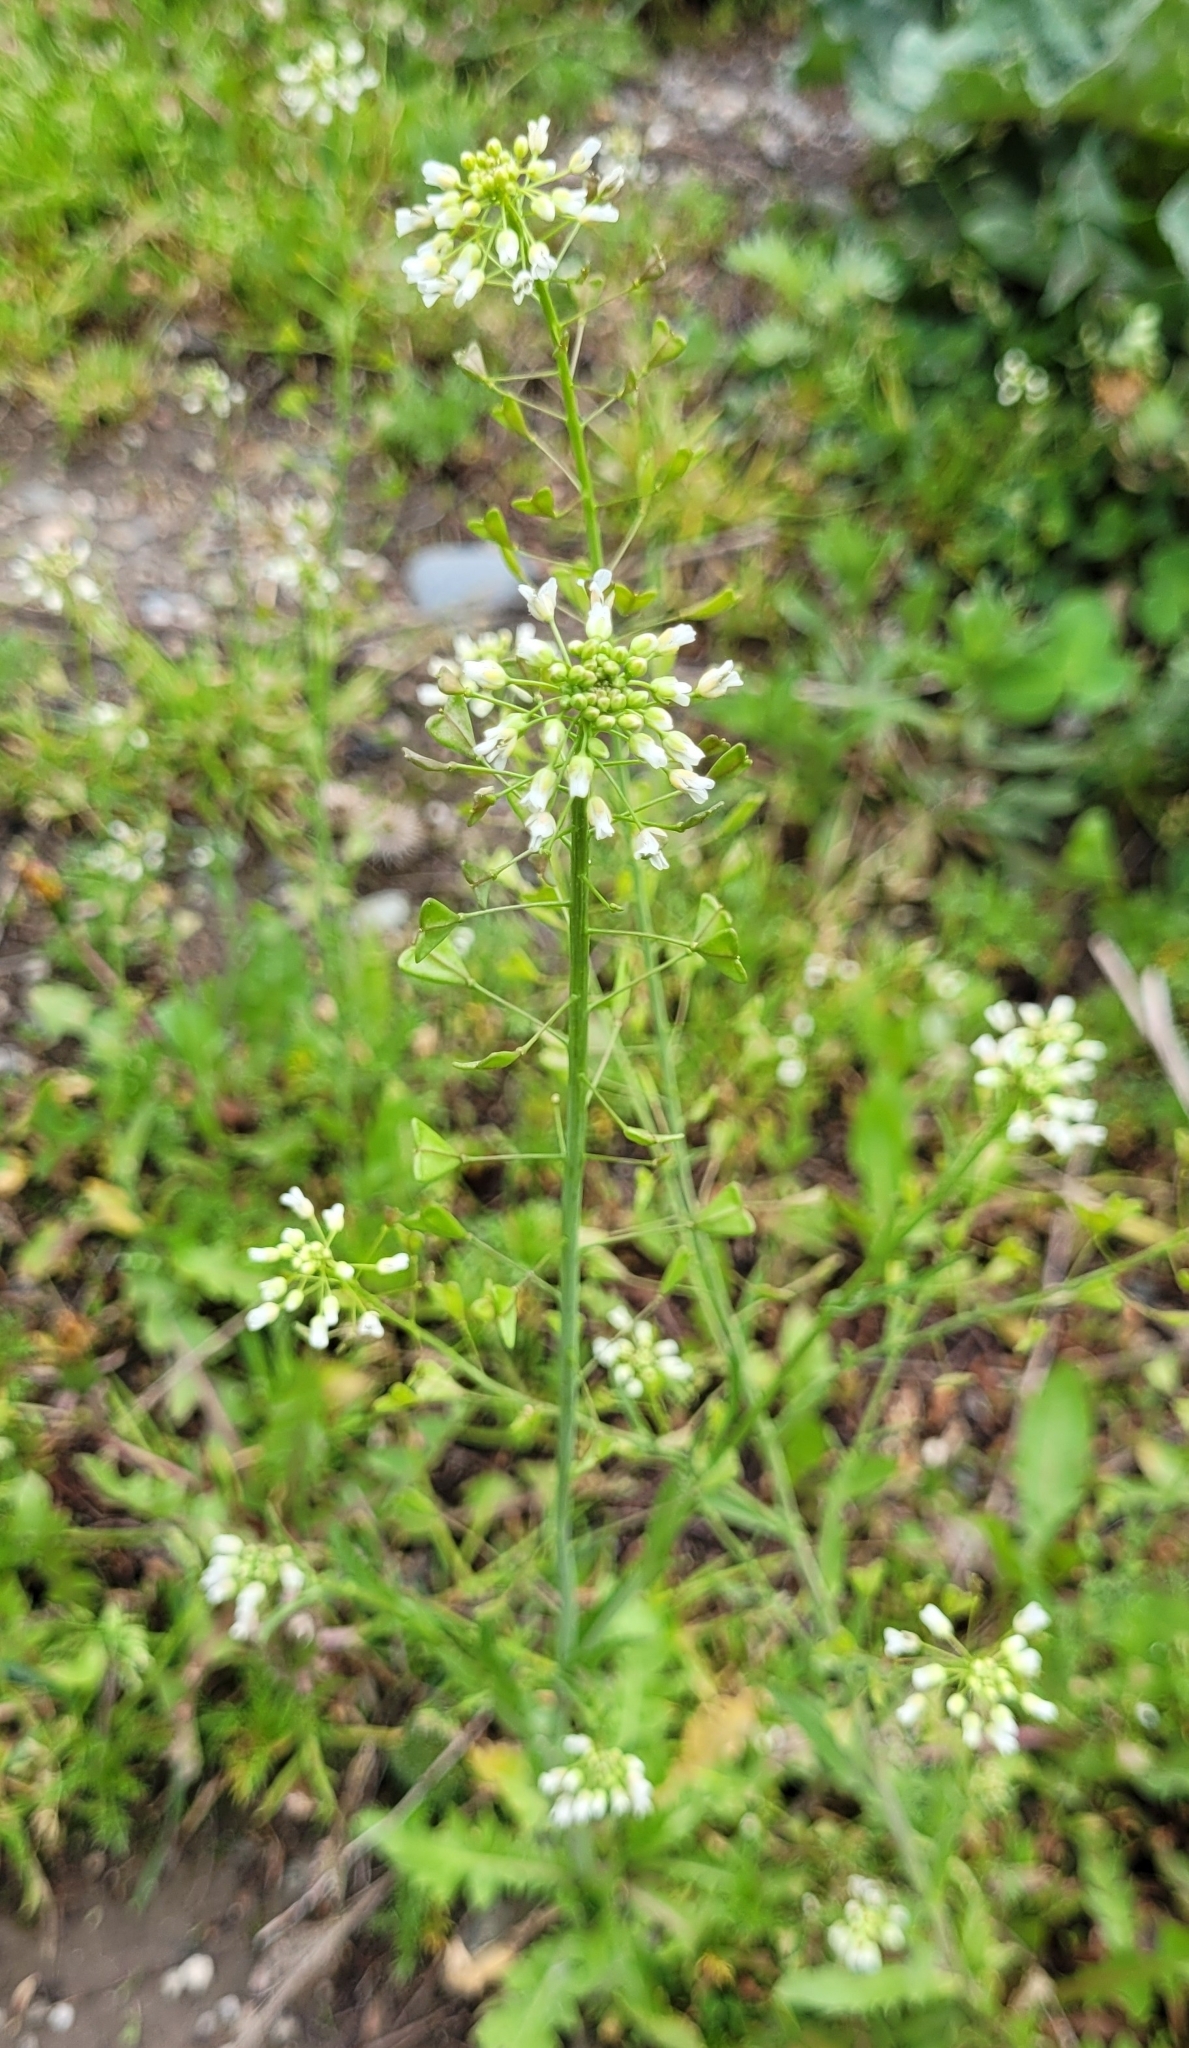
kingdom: Plantae
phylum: Tracheophyta
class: Magnoliopsida
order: Brassicales
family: Brassicaceae
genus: Capsella
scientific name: Capsella bursa-pastoris
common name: Shepherd's purse
